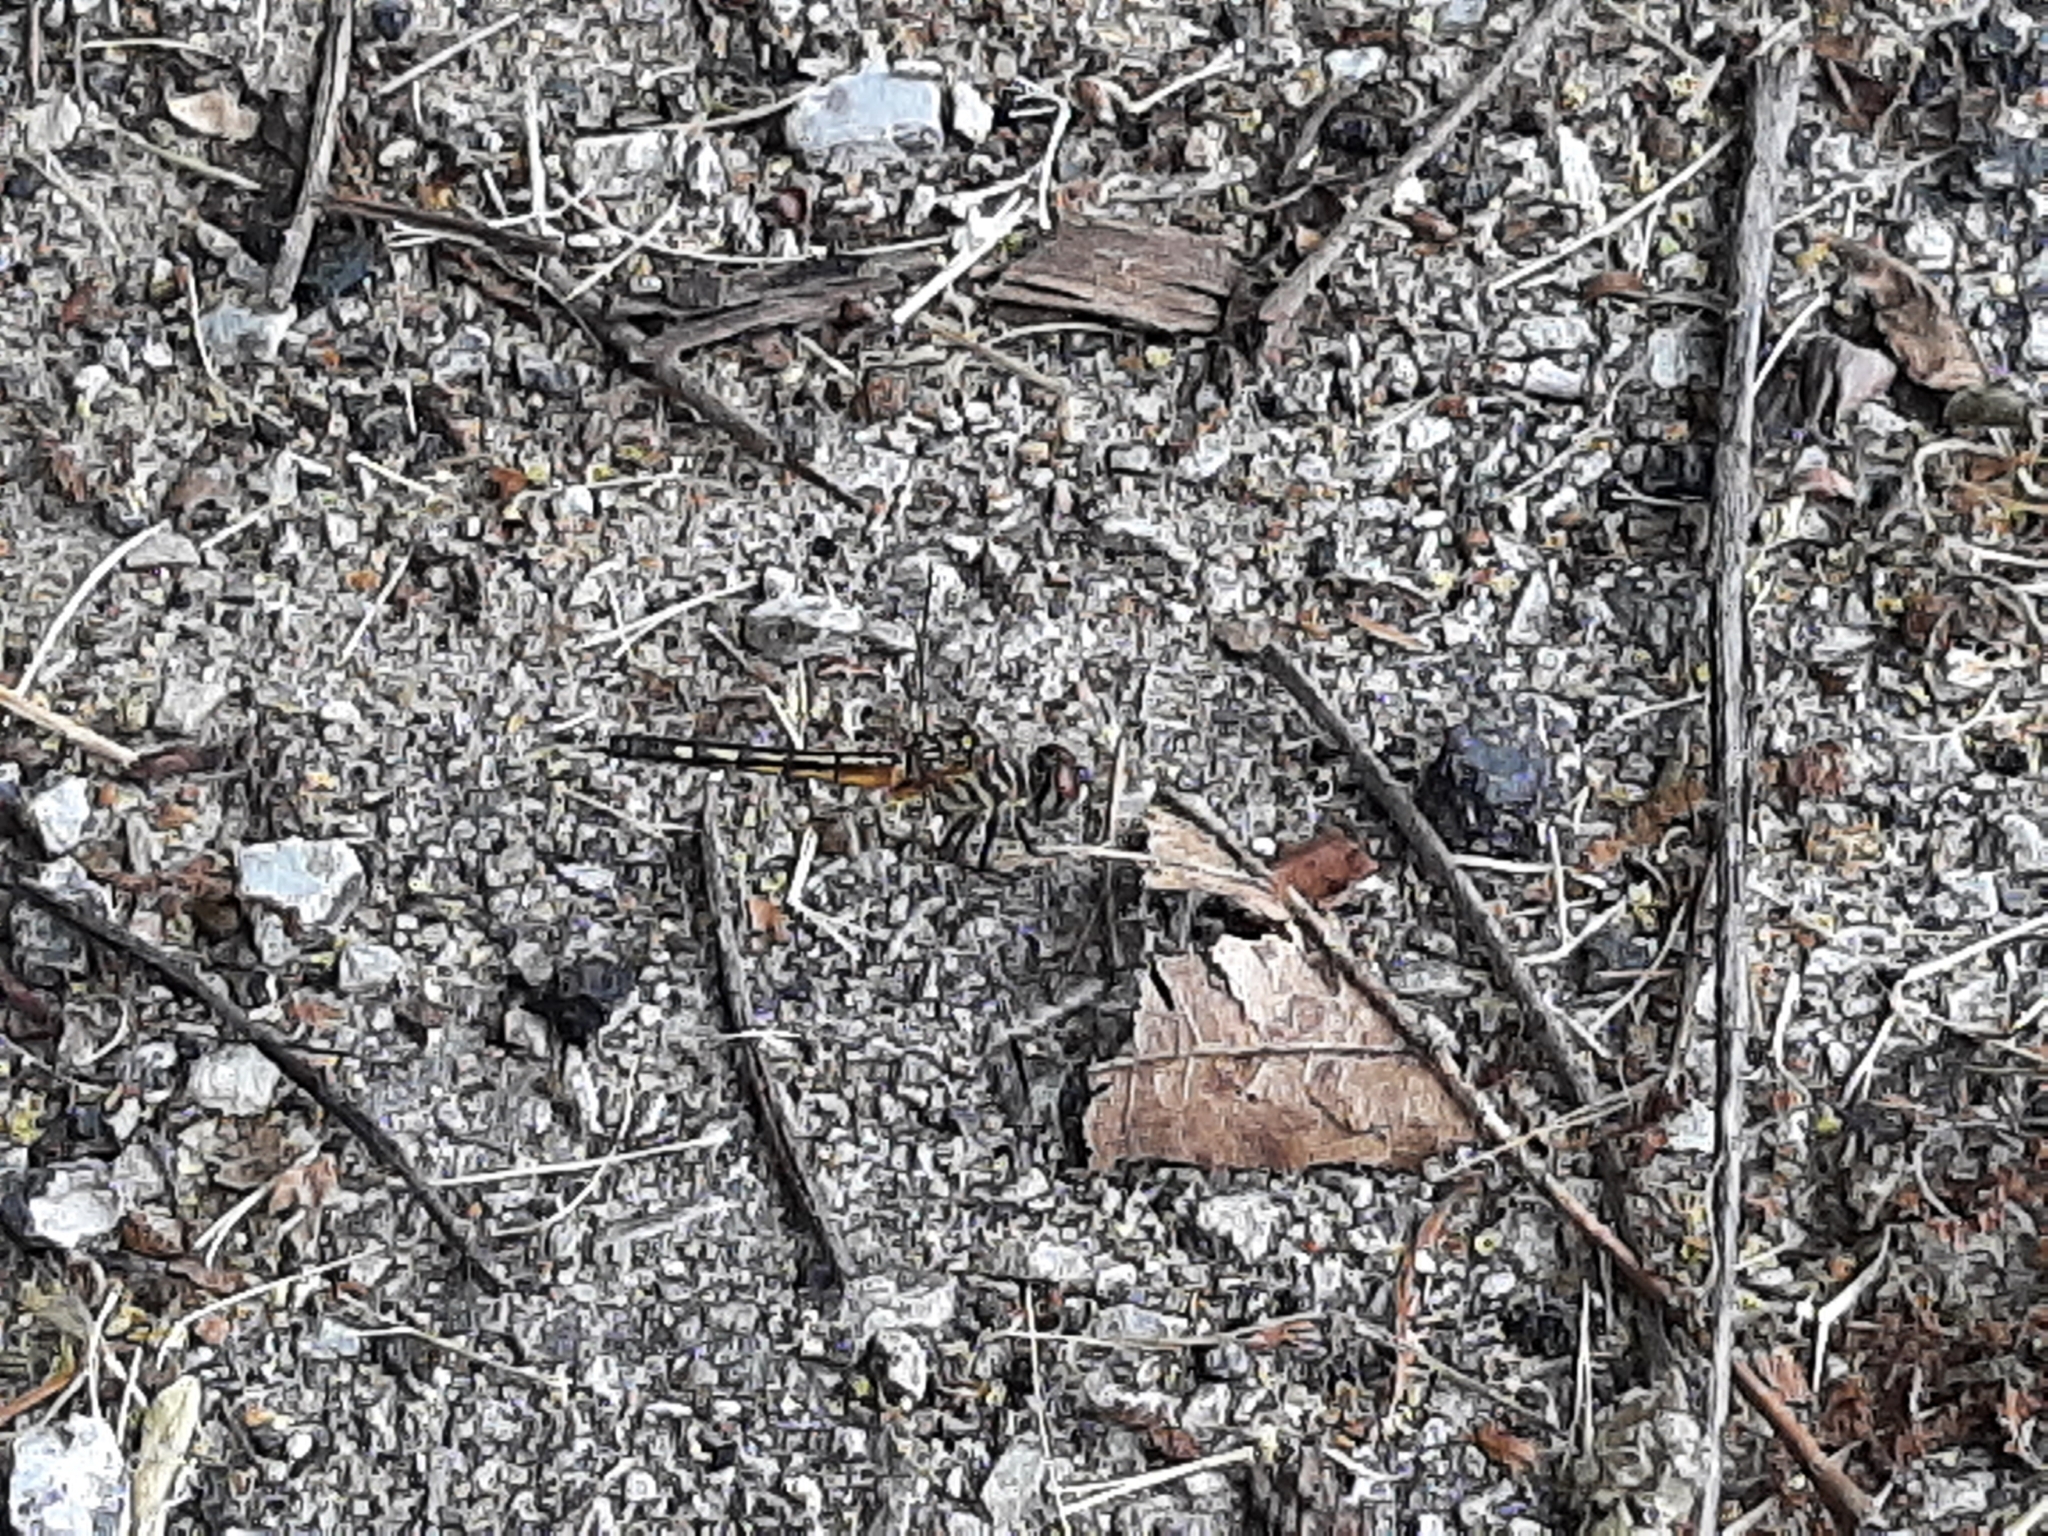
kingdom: Animalia
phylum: Arthropoda
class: Insecta
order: Odonata
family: Libellulidae
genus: Pachydiplax
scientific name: Pachydiplax longipennis
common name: Blue dasher
